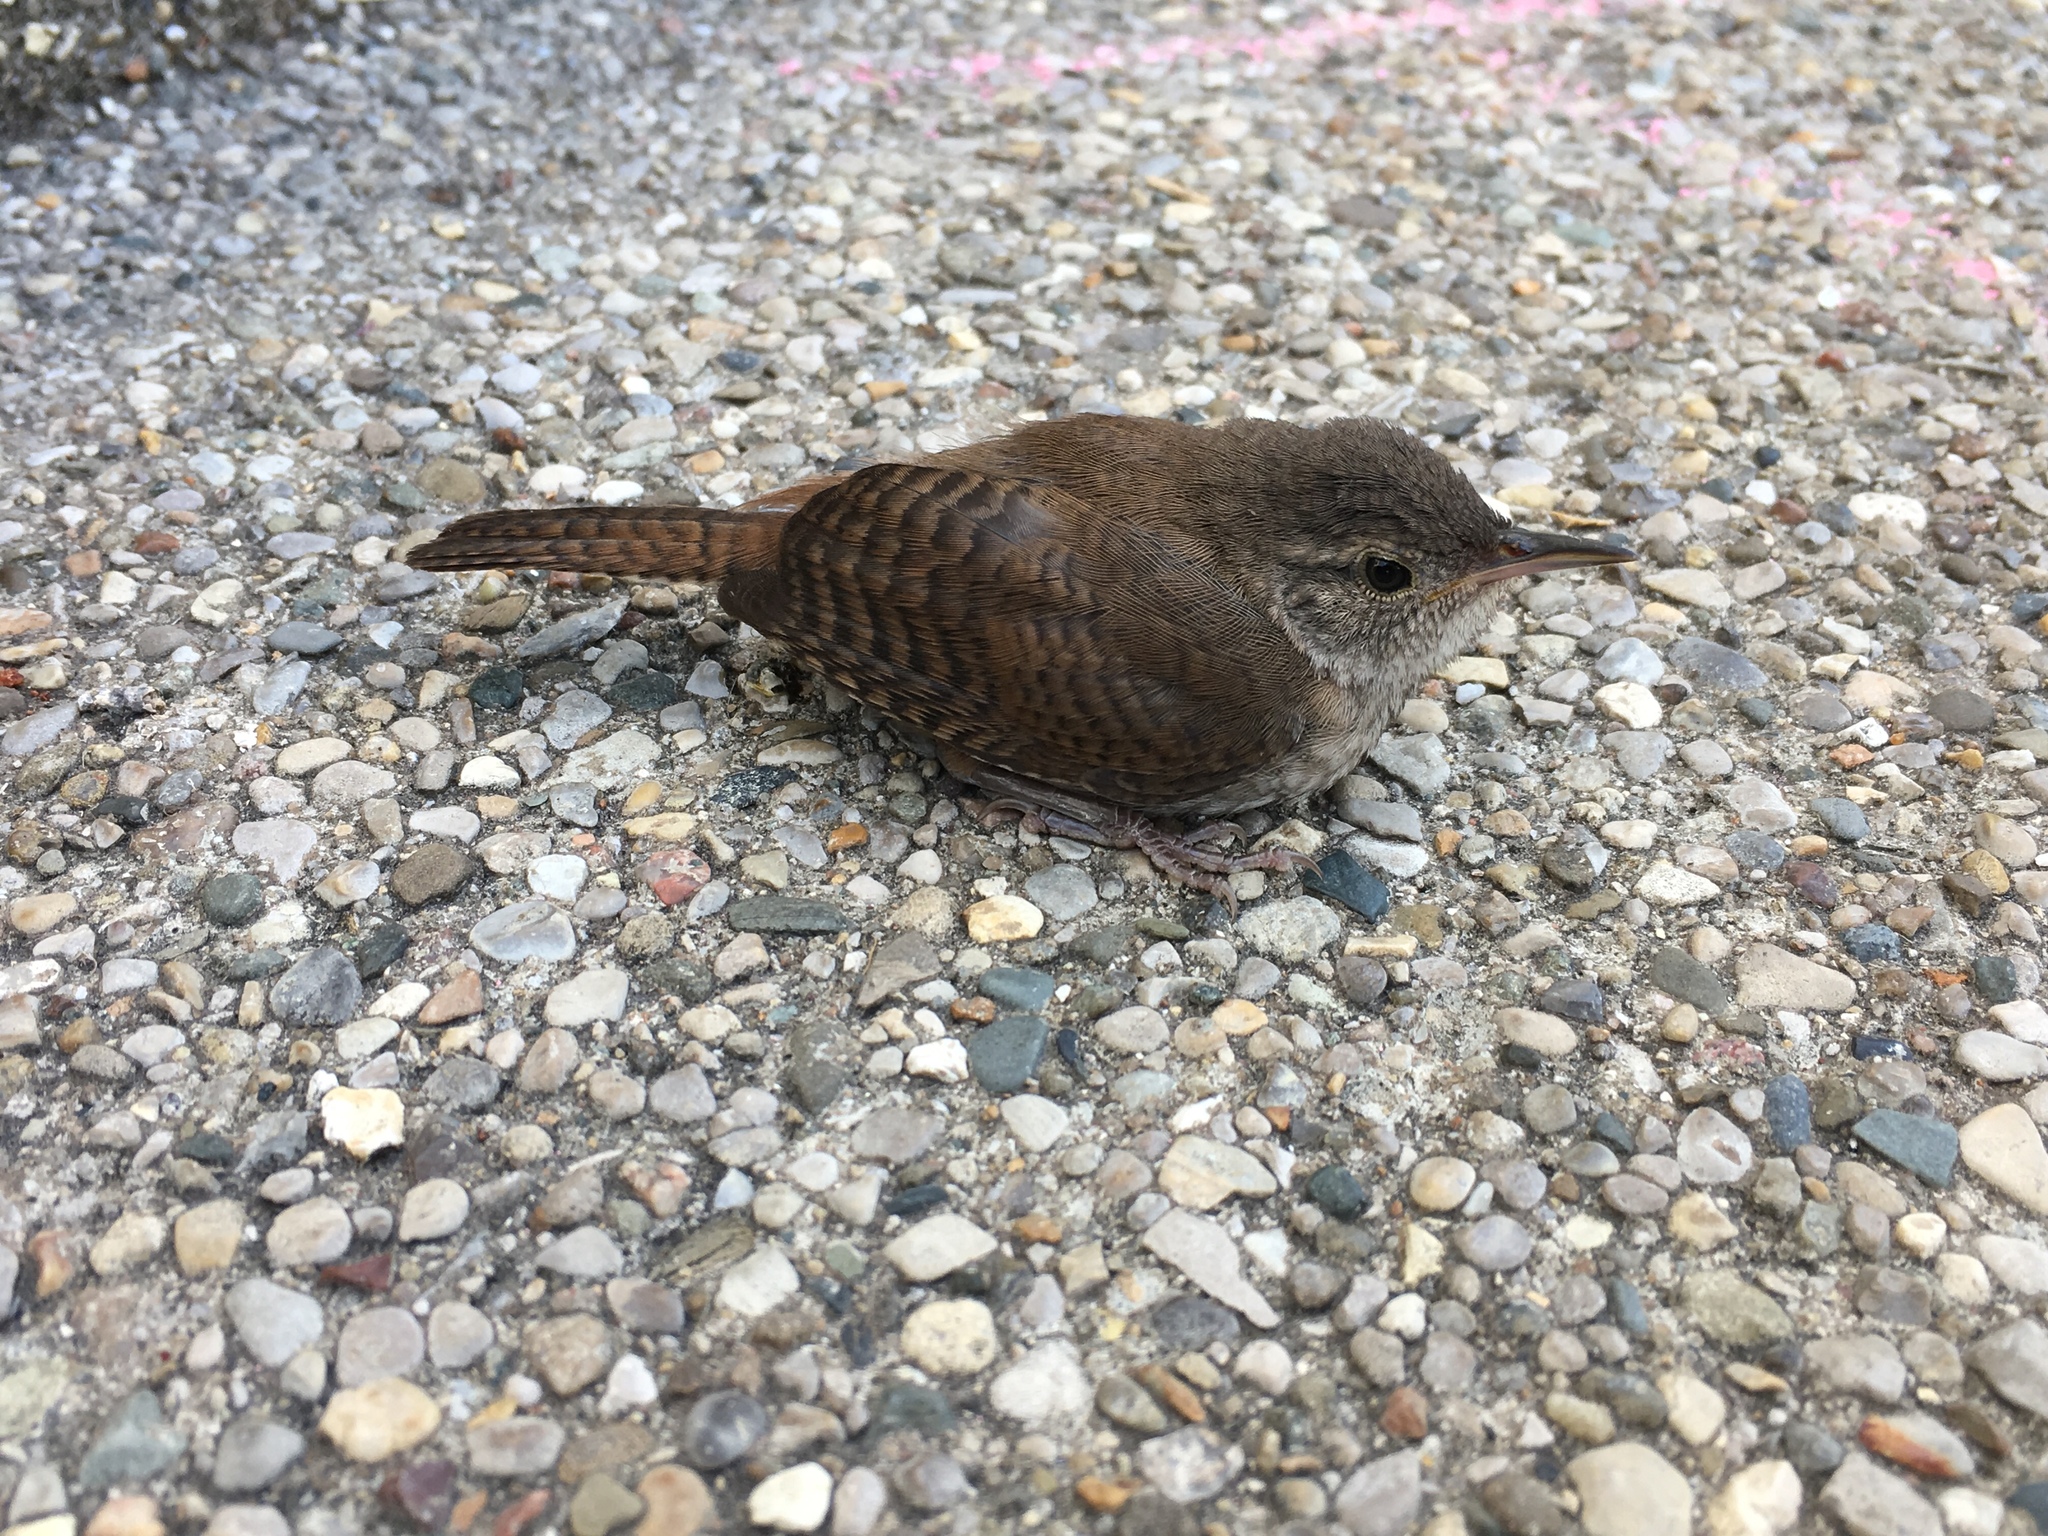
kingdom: Animalia
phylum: Chordata
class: Aves
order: Passeriformes
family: Troglodytidae
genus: Troglodytes
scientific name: Troglodytes aedon
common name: House wren
